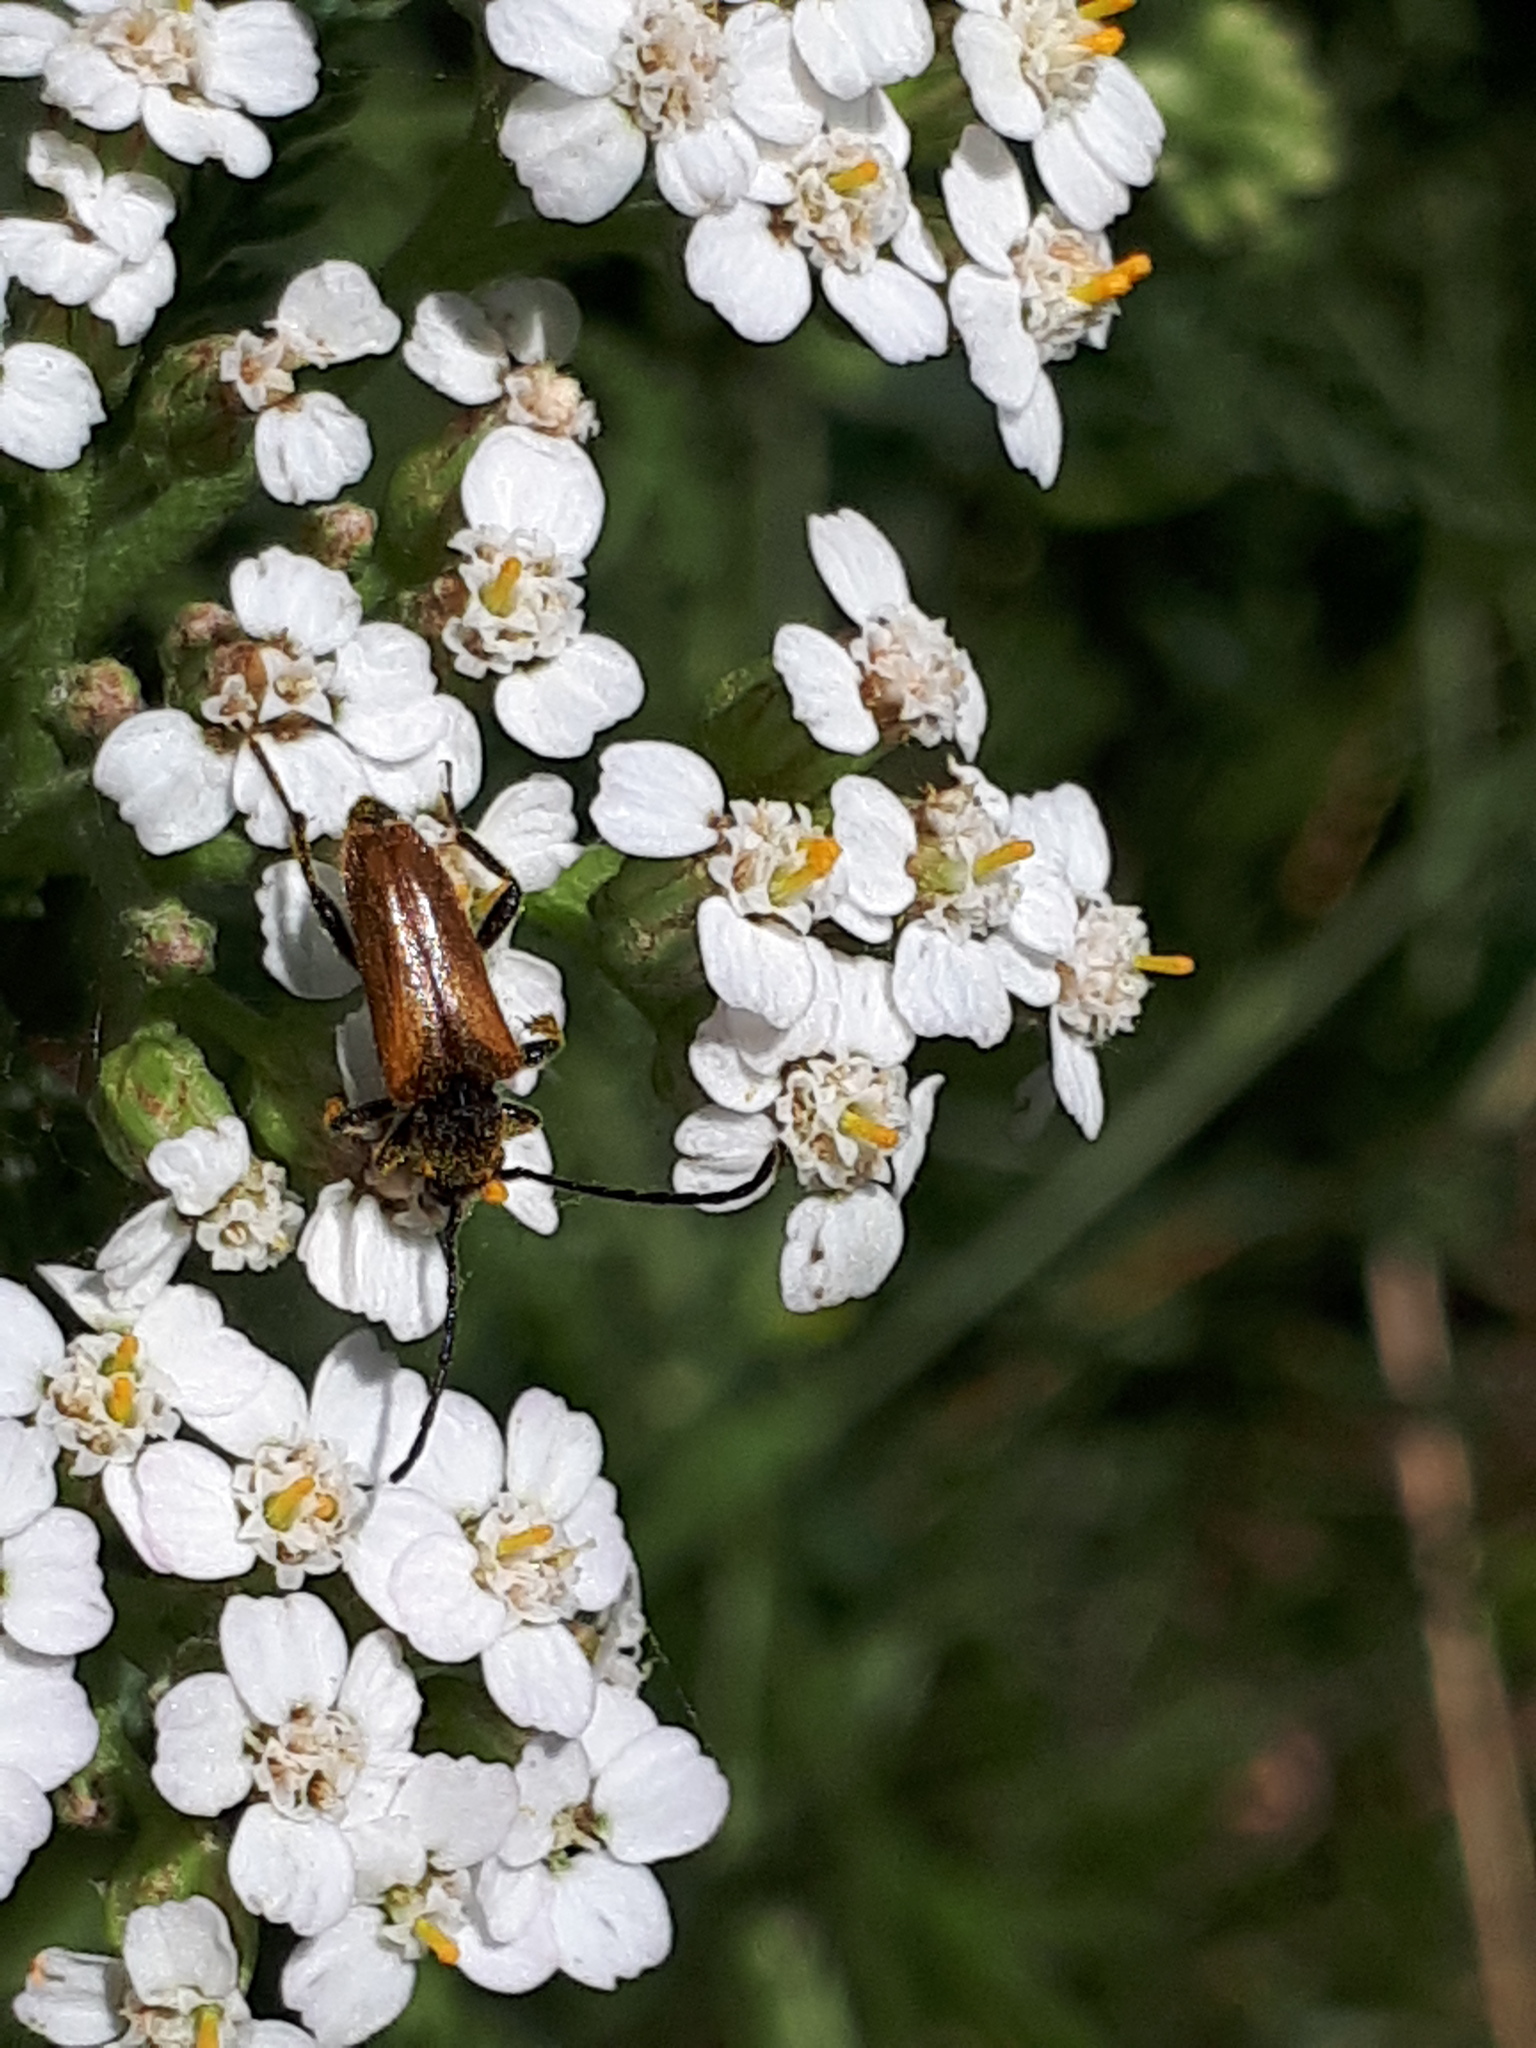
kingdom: Animalia
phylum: Arthropoda
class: Insecta
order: Coleoptera
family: Cerambycidae
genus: Pseudovadonia
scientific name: Pseudovadonia livida
